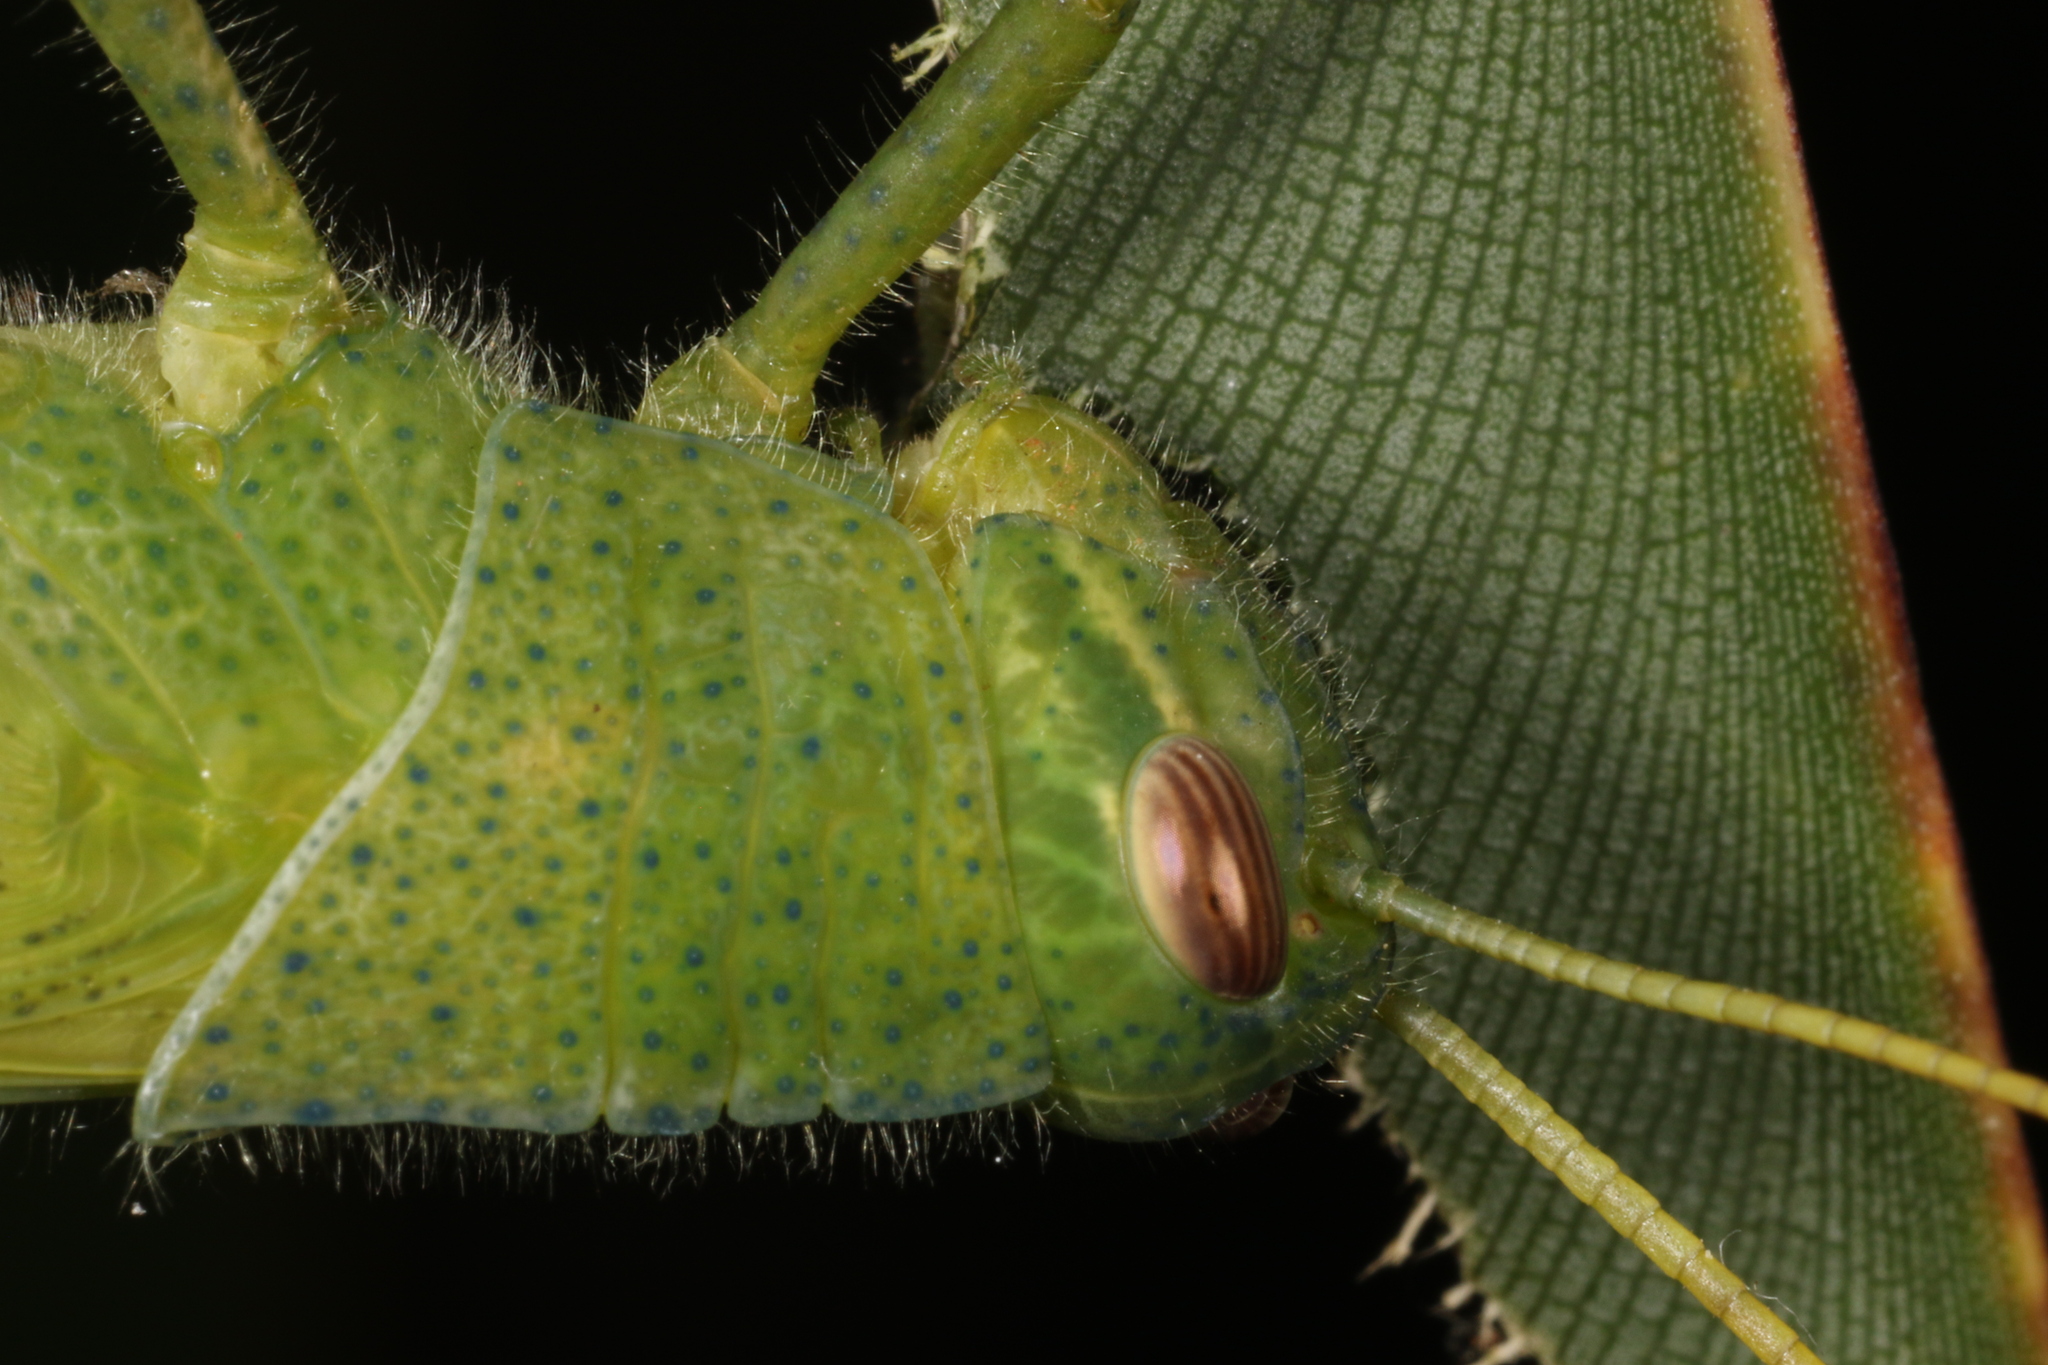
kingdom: Animalia
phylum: Arthropoda
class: Insecta
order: Orthoptera
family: Acrididae
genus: Schistocerca
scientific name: Schistocerca flavofasciata
